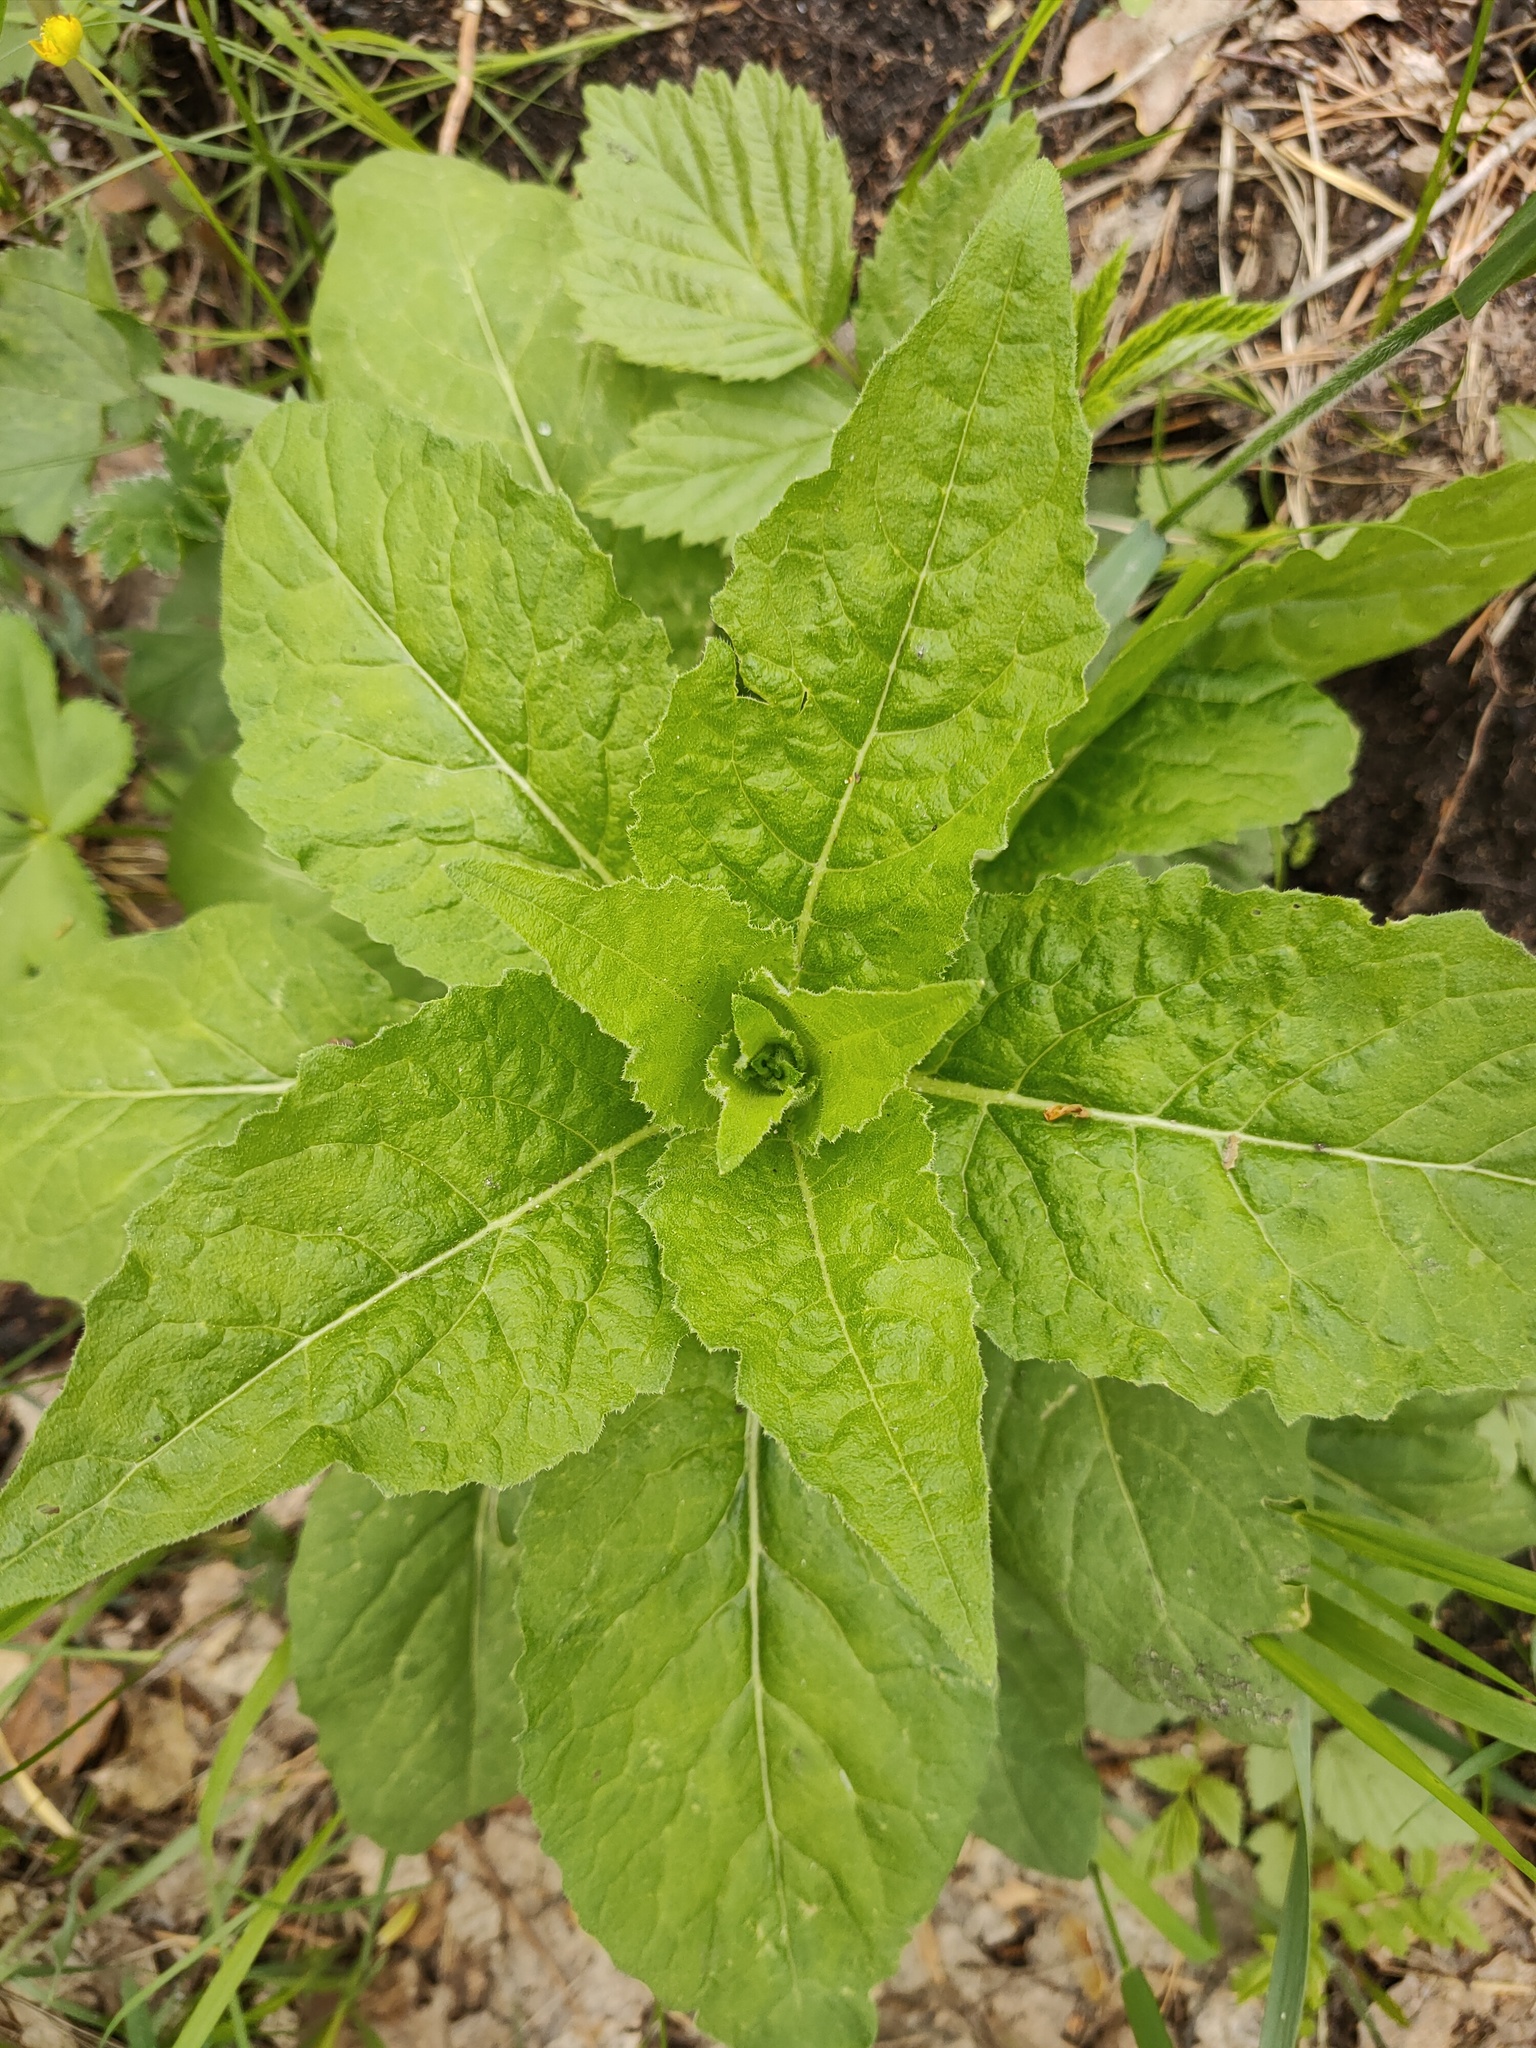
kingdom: Plantae
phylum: Tracheophyta
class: Magnoliopsida
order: Asterales
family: Campanulaceae
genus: Campanula
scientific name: Campanula latifolia
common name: Giant bellflower
